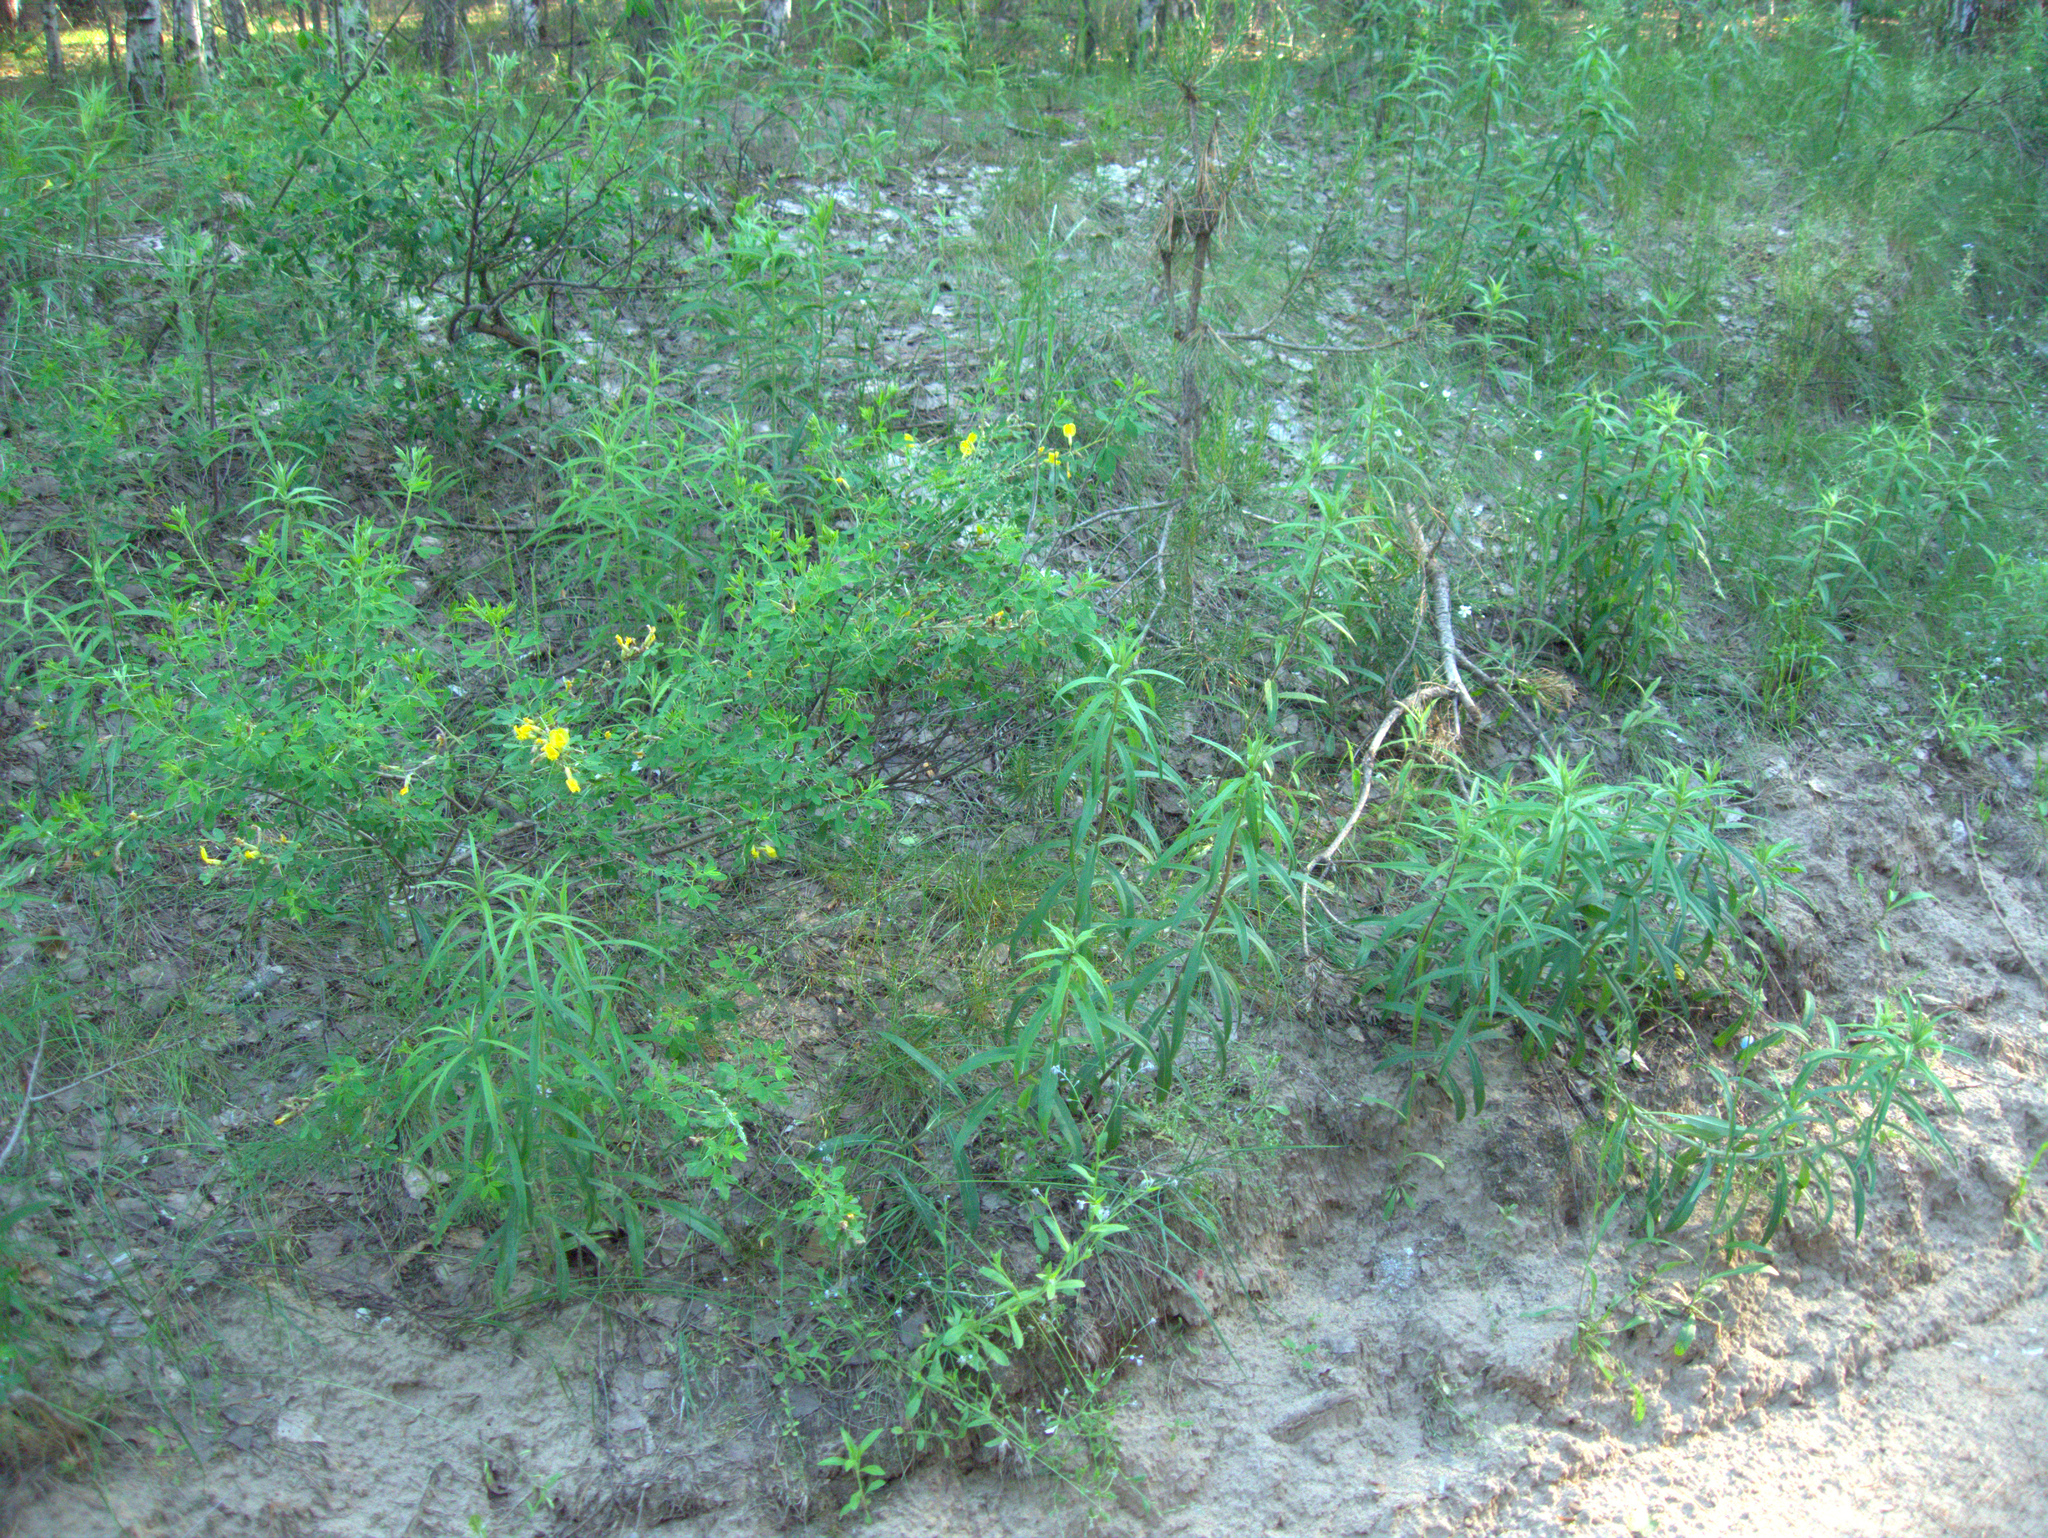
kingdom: Plantae
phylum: Tracheophyta
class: Pinopsida
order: Pinales
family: Pinaceae
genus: Pinus
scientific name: Pinus sylvestris
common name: Scots pine
